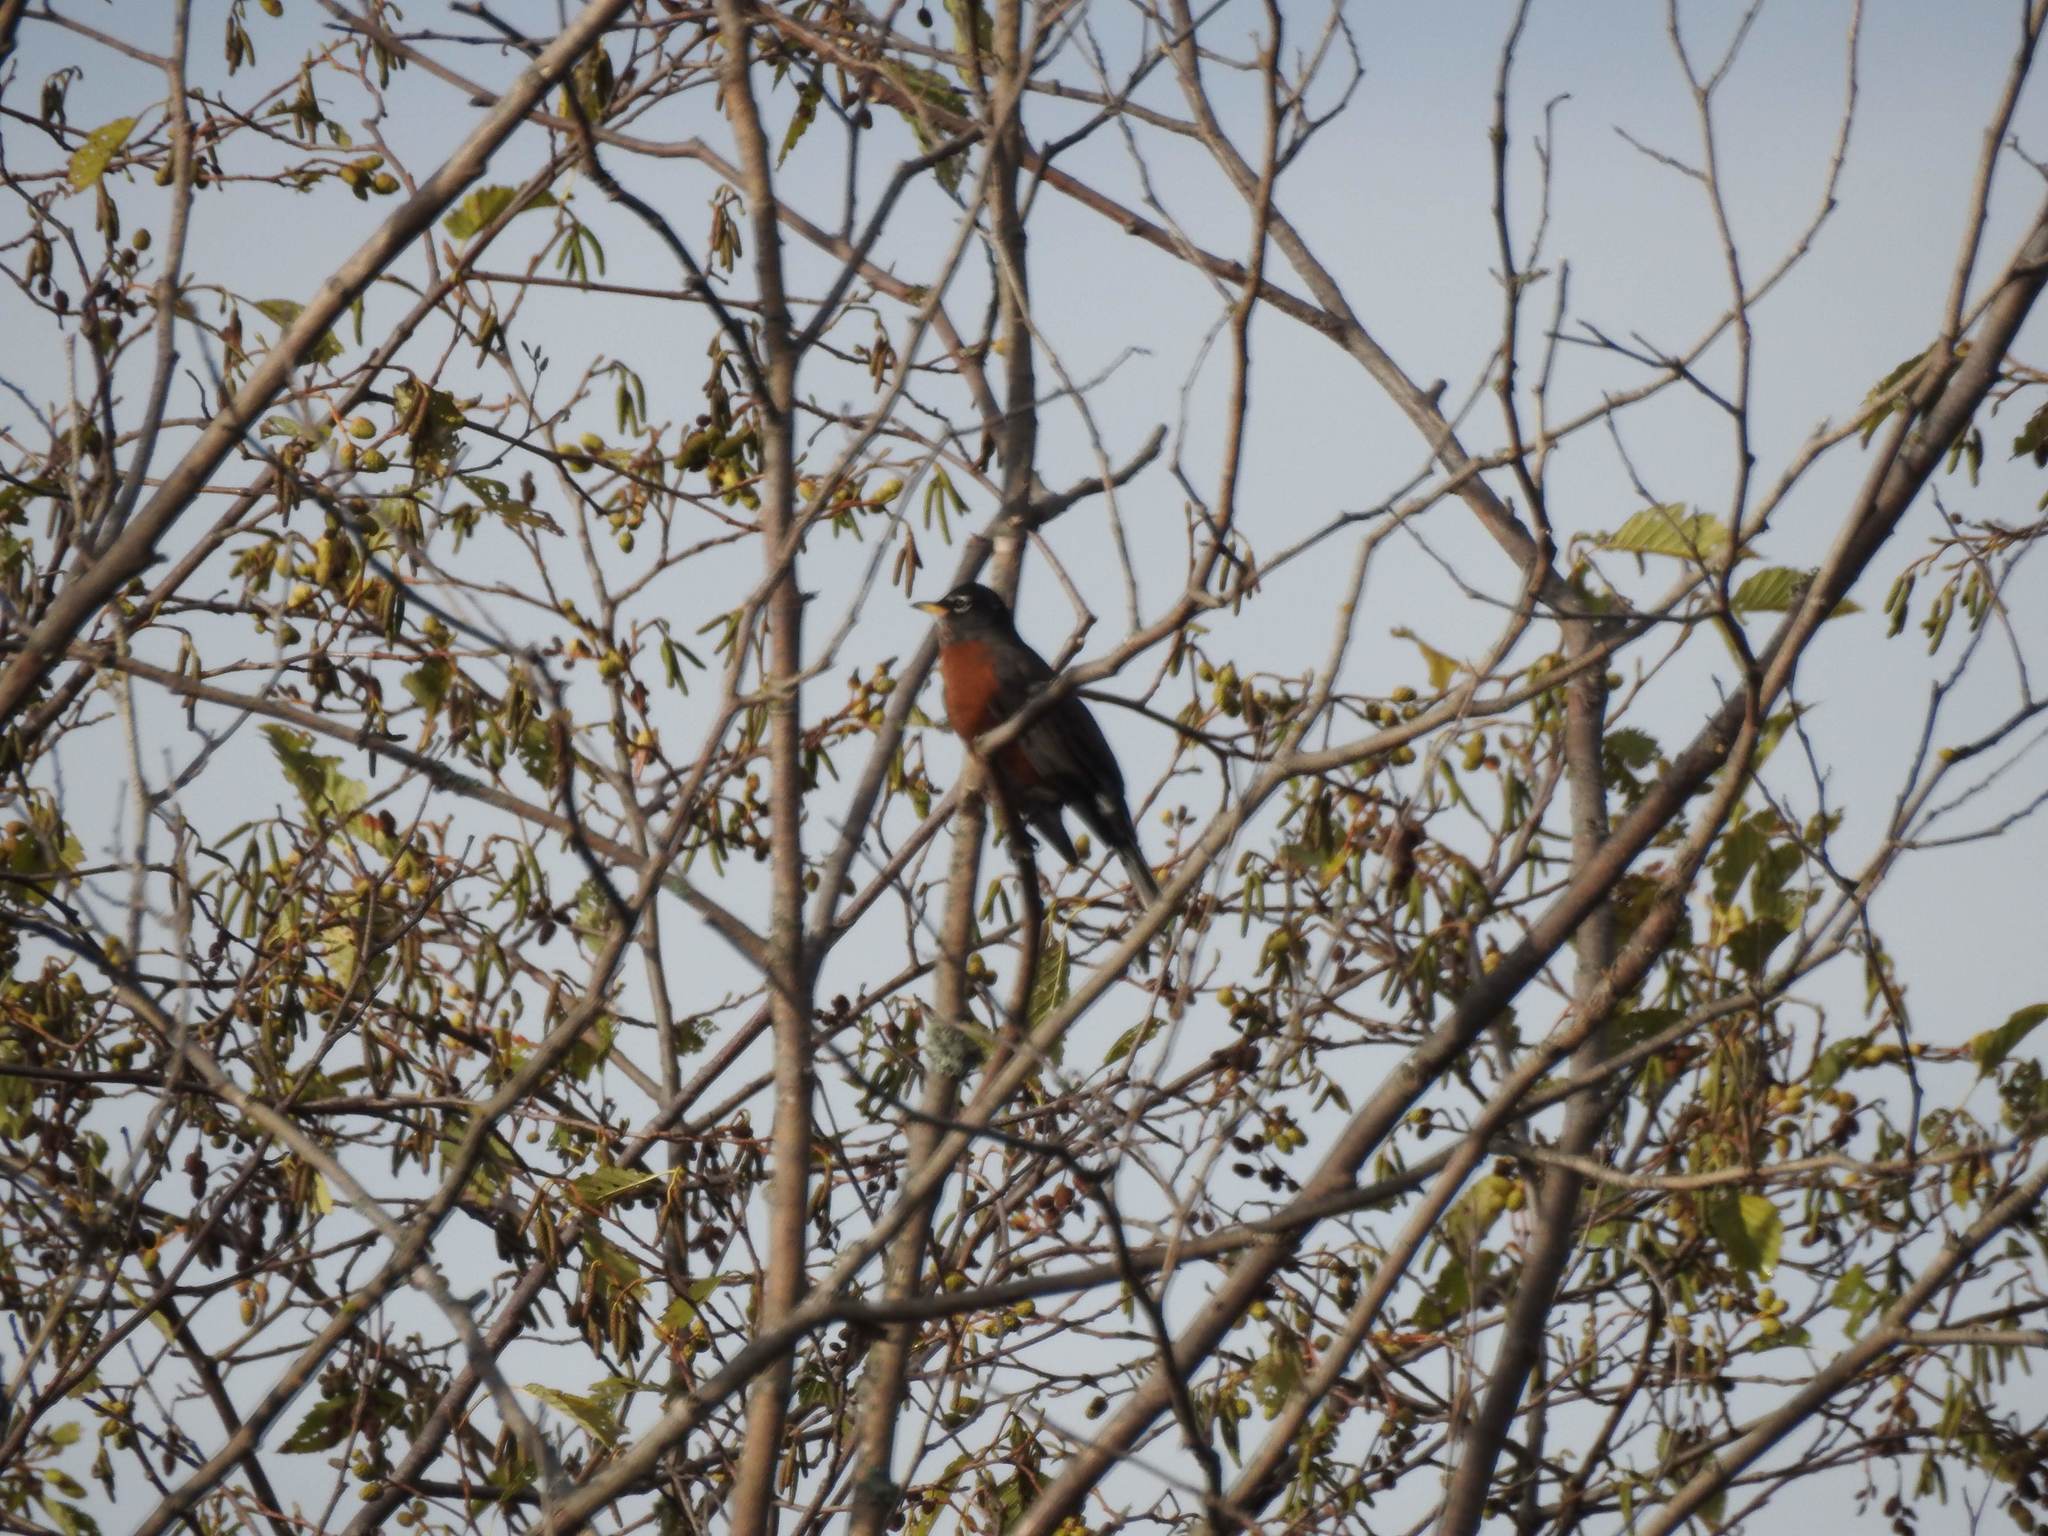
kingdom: Animalia
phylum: Chordata
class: Aves
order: Passeriformes
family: Turdidae
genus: Turdus
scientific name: Turdus migratorius
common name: American robin
